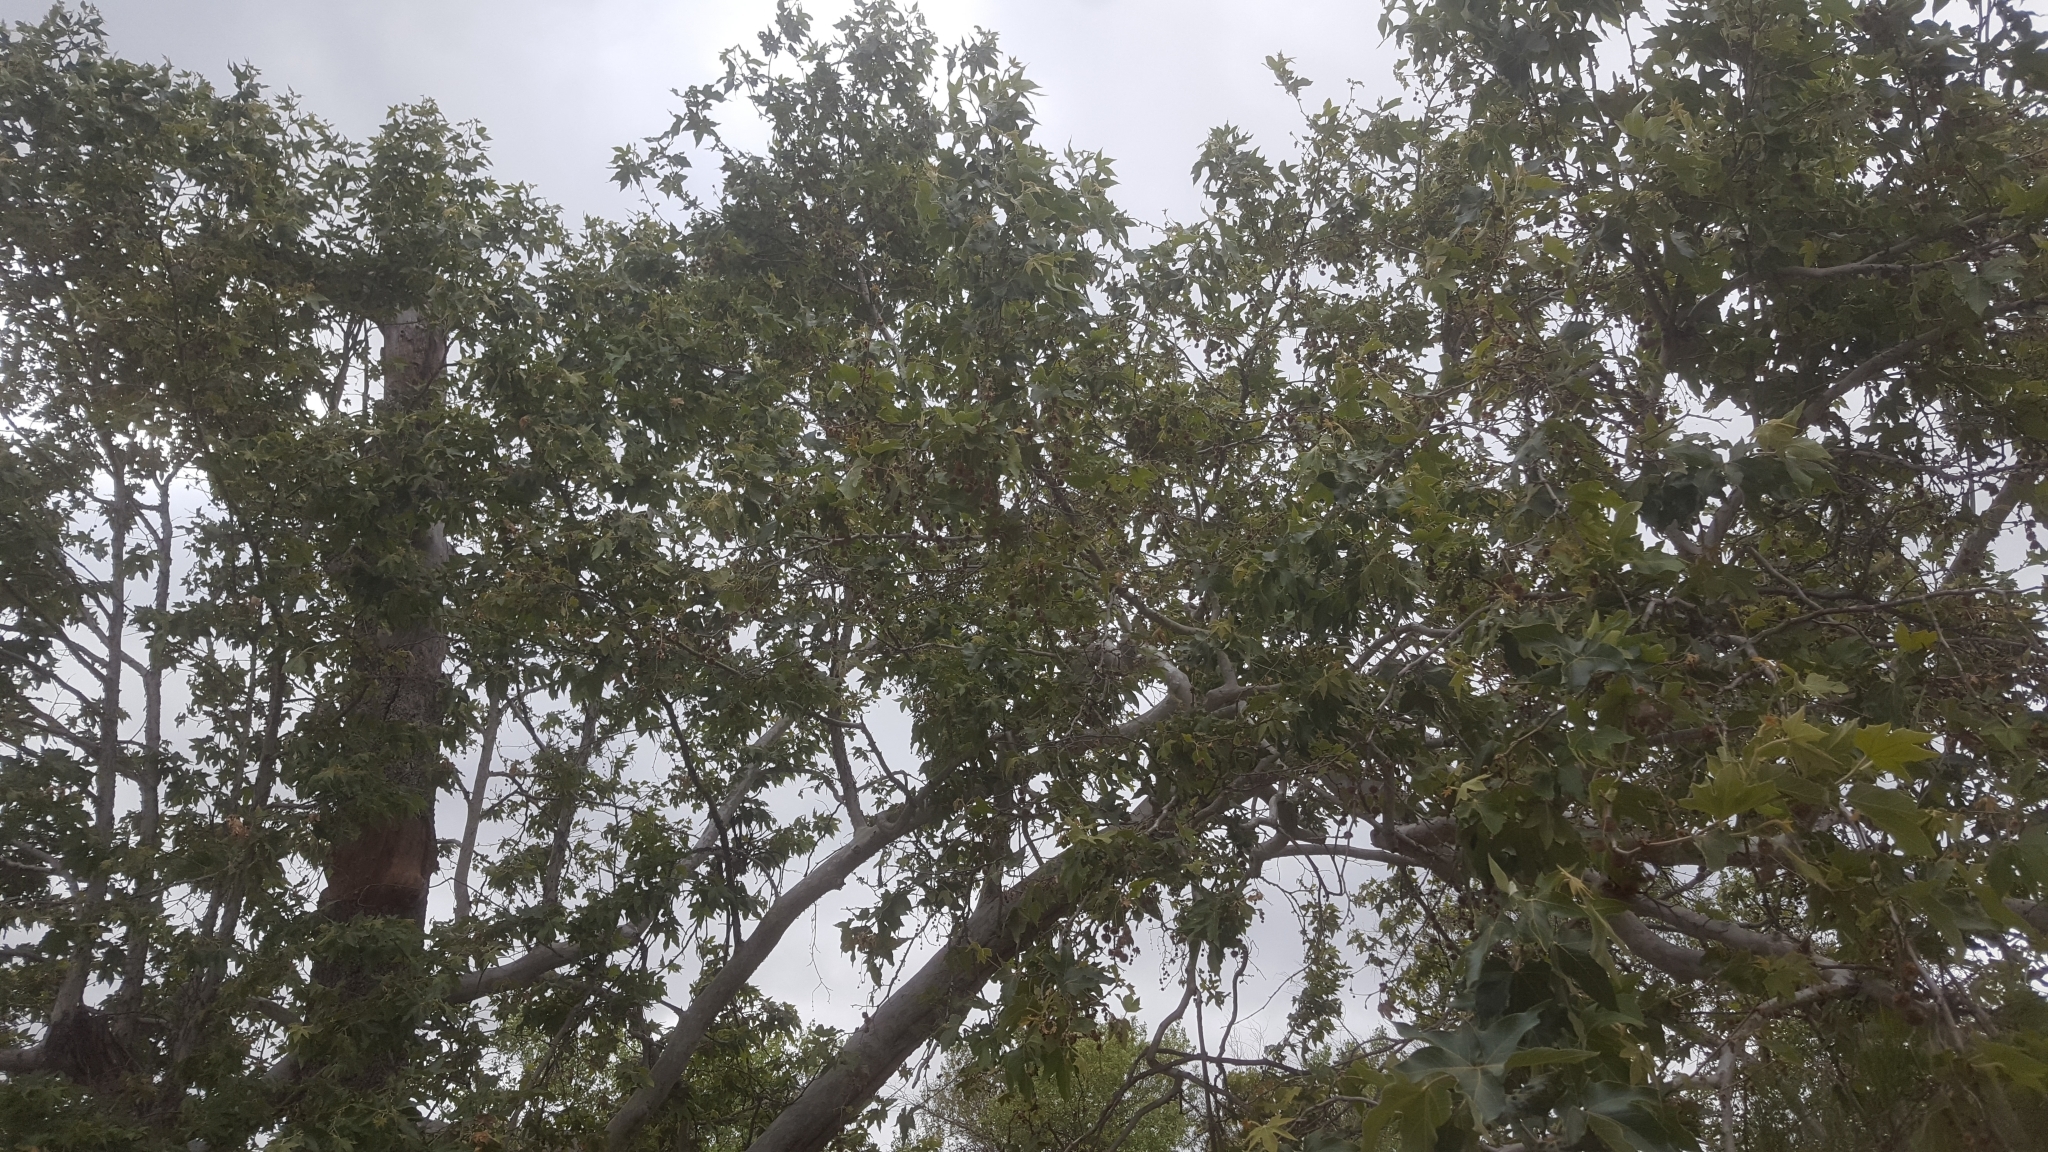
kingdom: Plantae
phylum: Tracheophyta
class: Magnoliopsida
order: Proteales
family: Platanaceae
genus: Platanus
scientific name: Platanus racemosa
